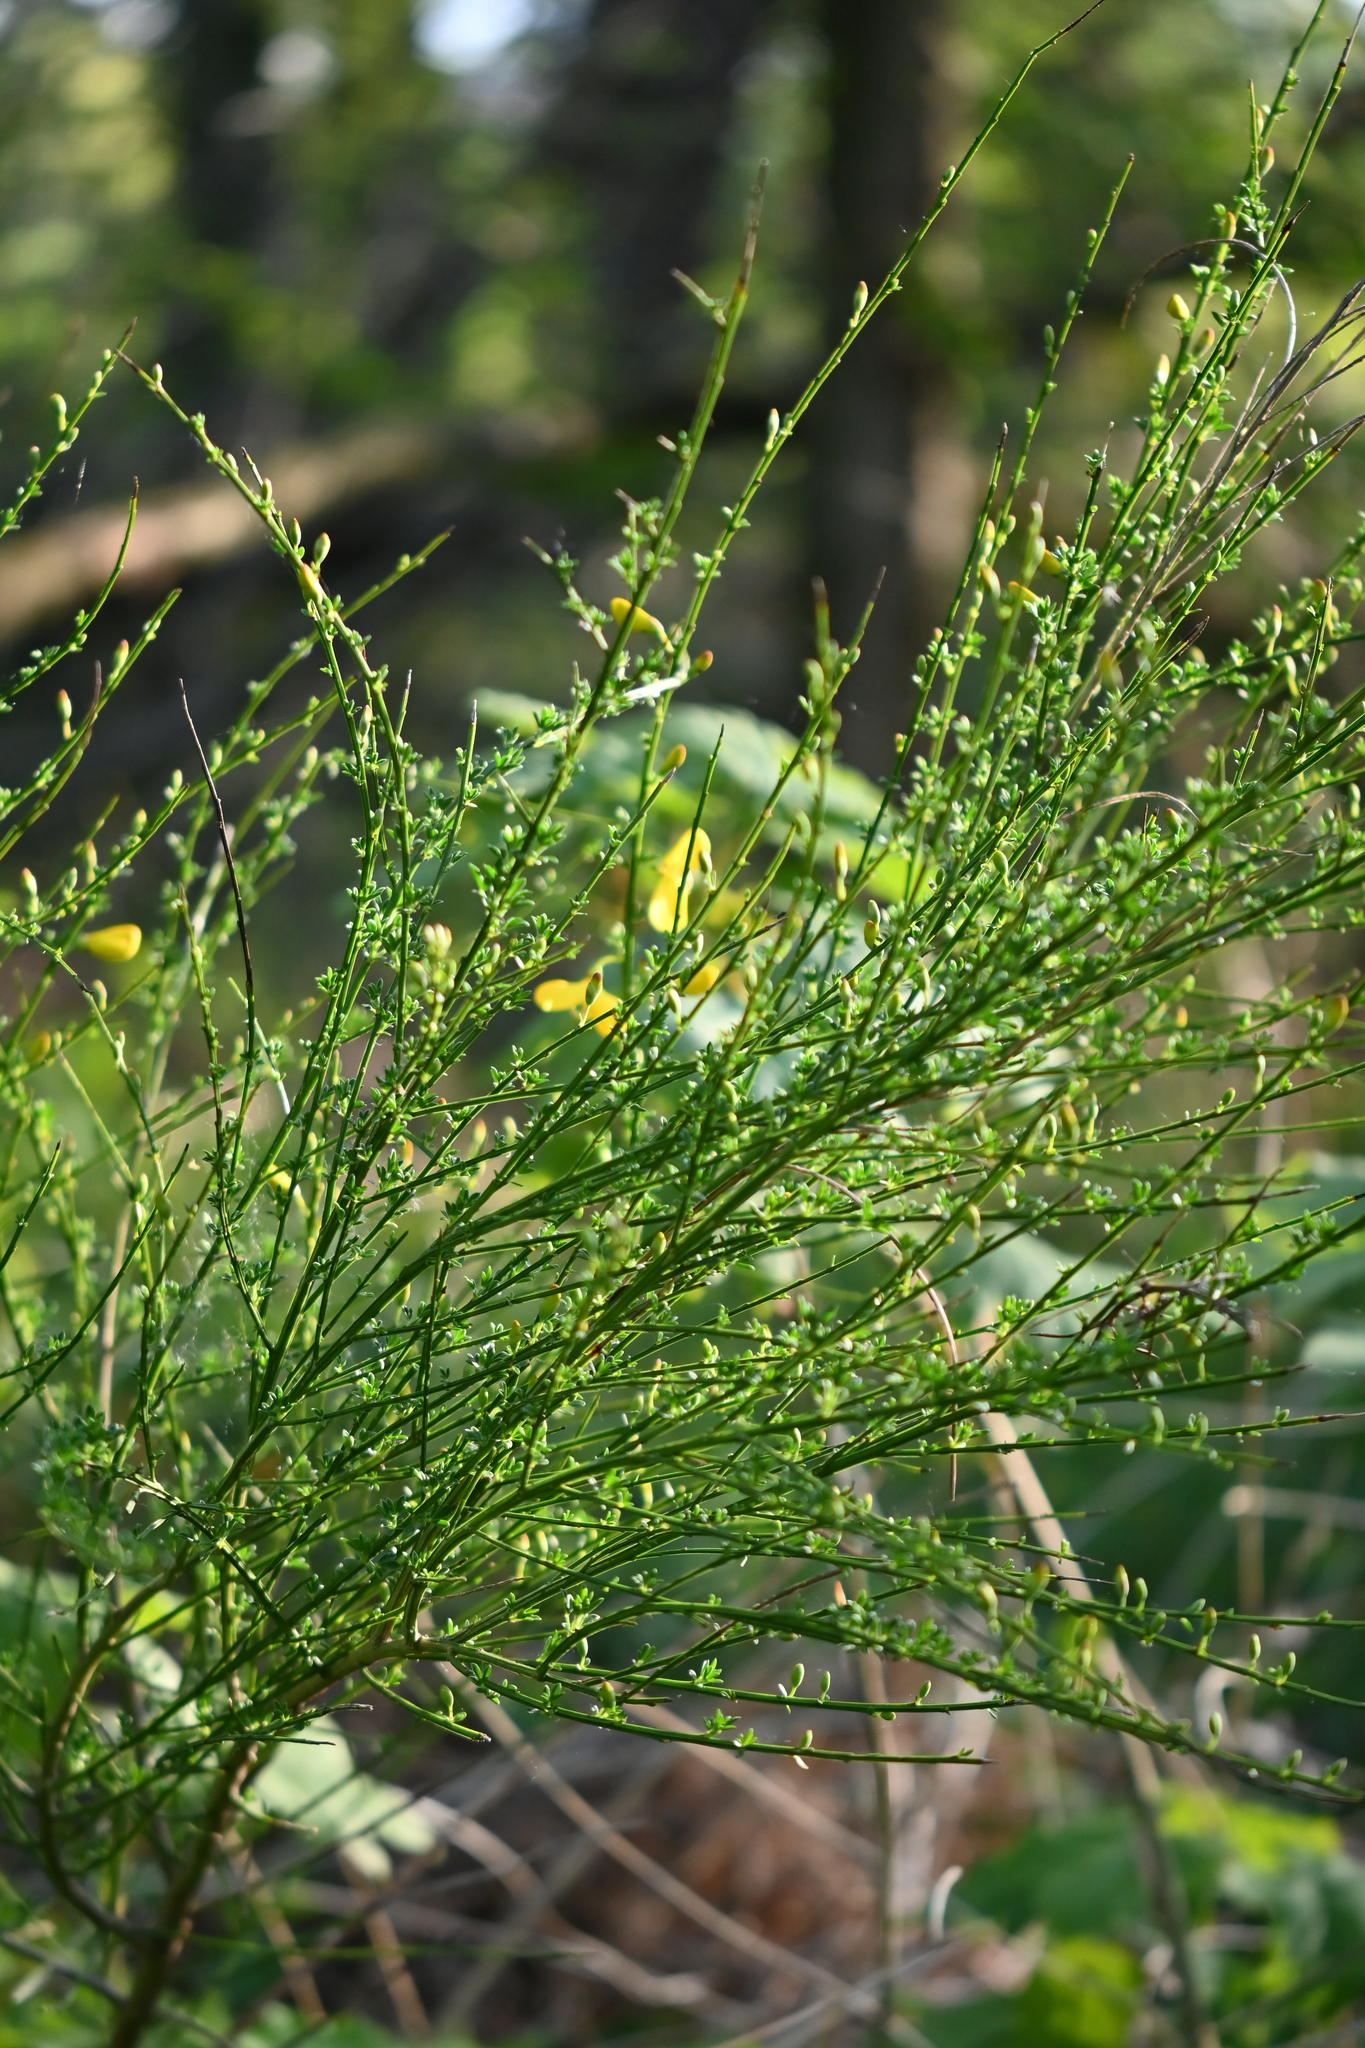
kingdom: Plantae
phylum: Tracheophyta
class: Magnoliopsida
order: Fabales
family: Fabaceae
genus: Cytisus
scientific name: Cytisus scoparius
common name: Scotch broom
